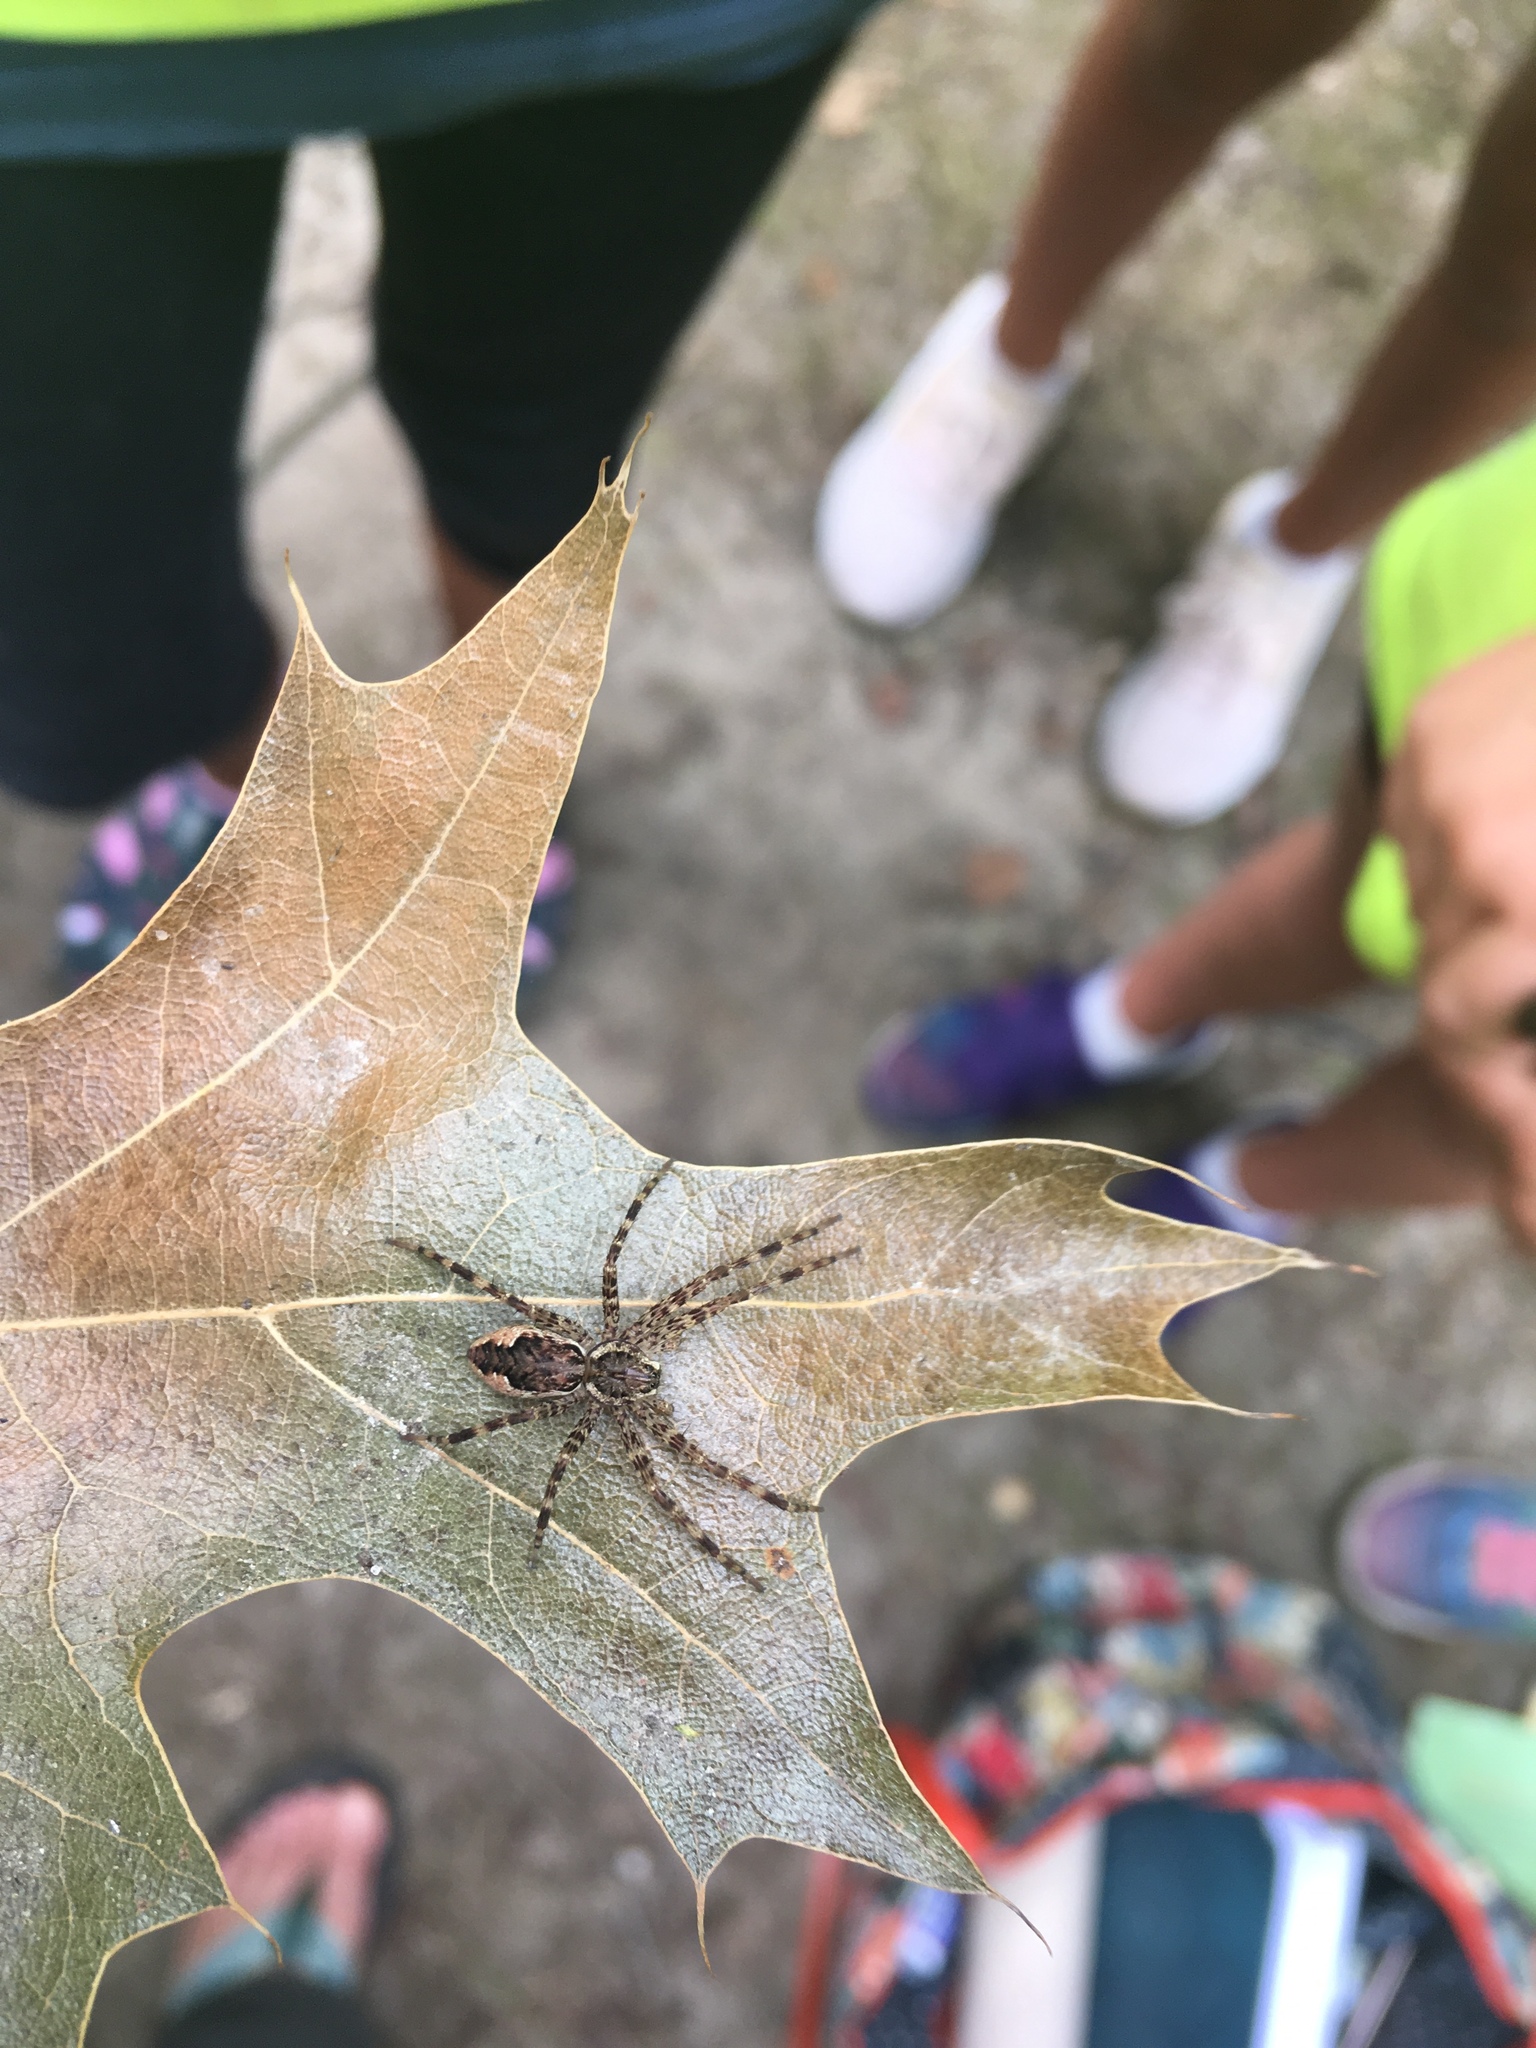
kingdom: Animalia
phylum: Arthropoda
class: Arachnida
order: Araneae
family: Pisauridae
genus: Dolomedes
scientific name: Dolomedes tenebrosus
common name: Dark fishing spider
